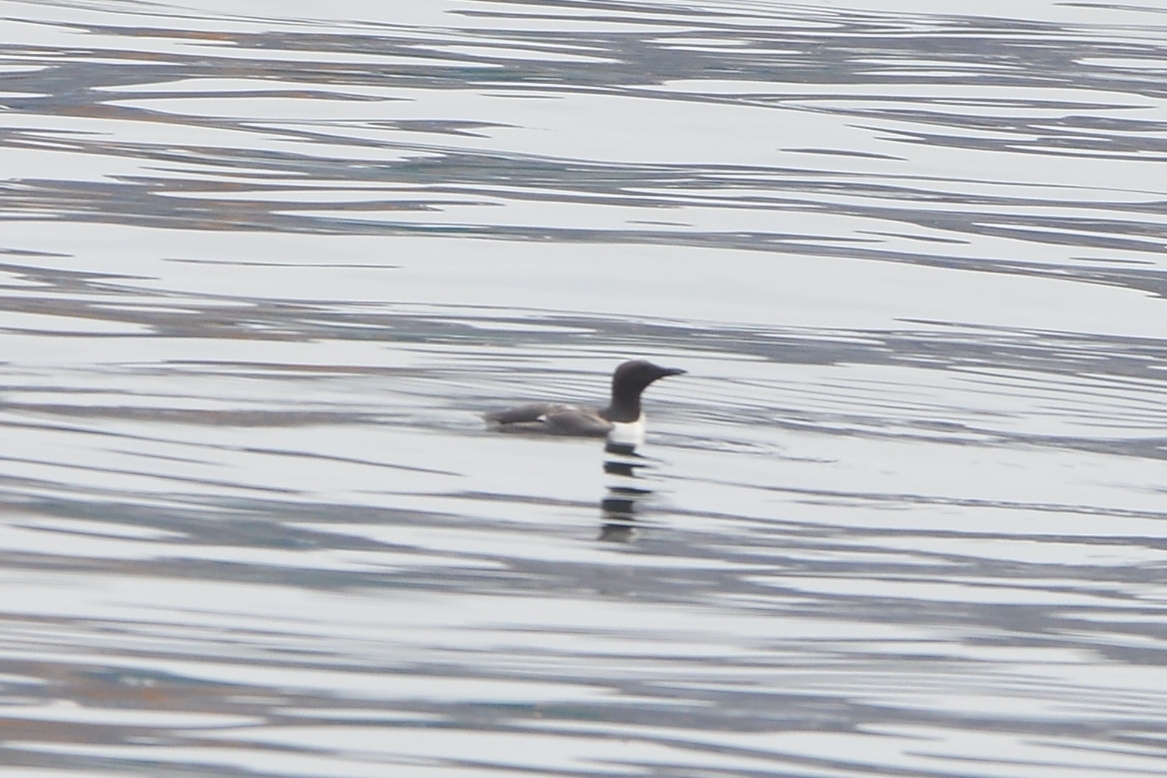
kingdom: Animalia
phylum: Chordata
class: Aves
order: Charadriiformes
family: Alcidae
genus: Uria
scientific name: Uria aalge
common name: Common murre
